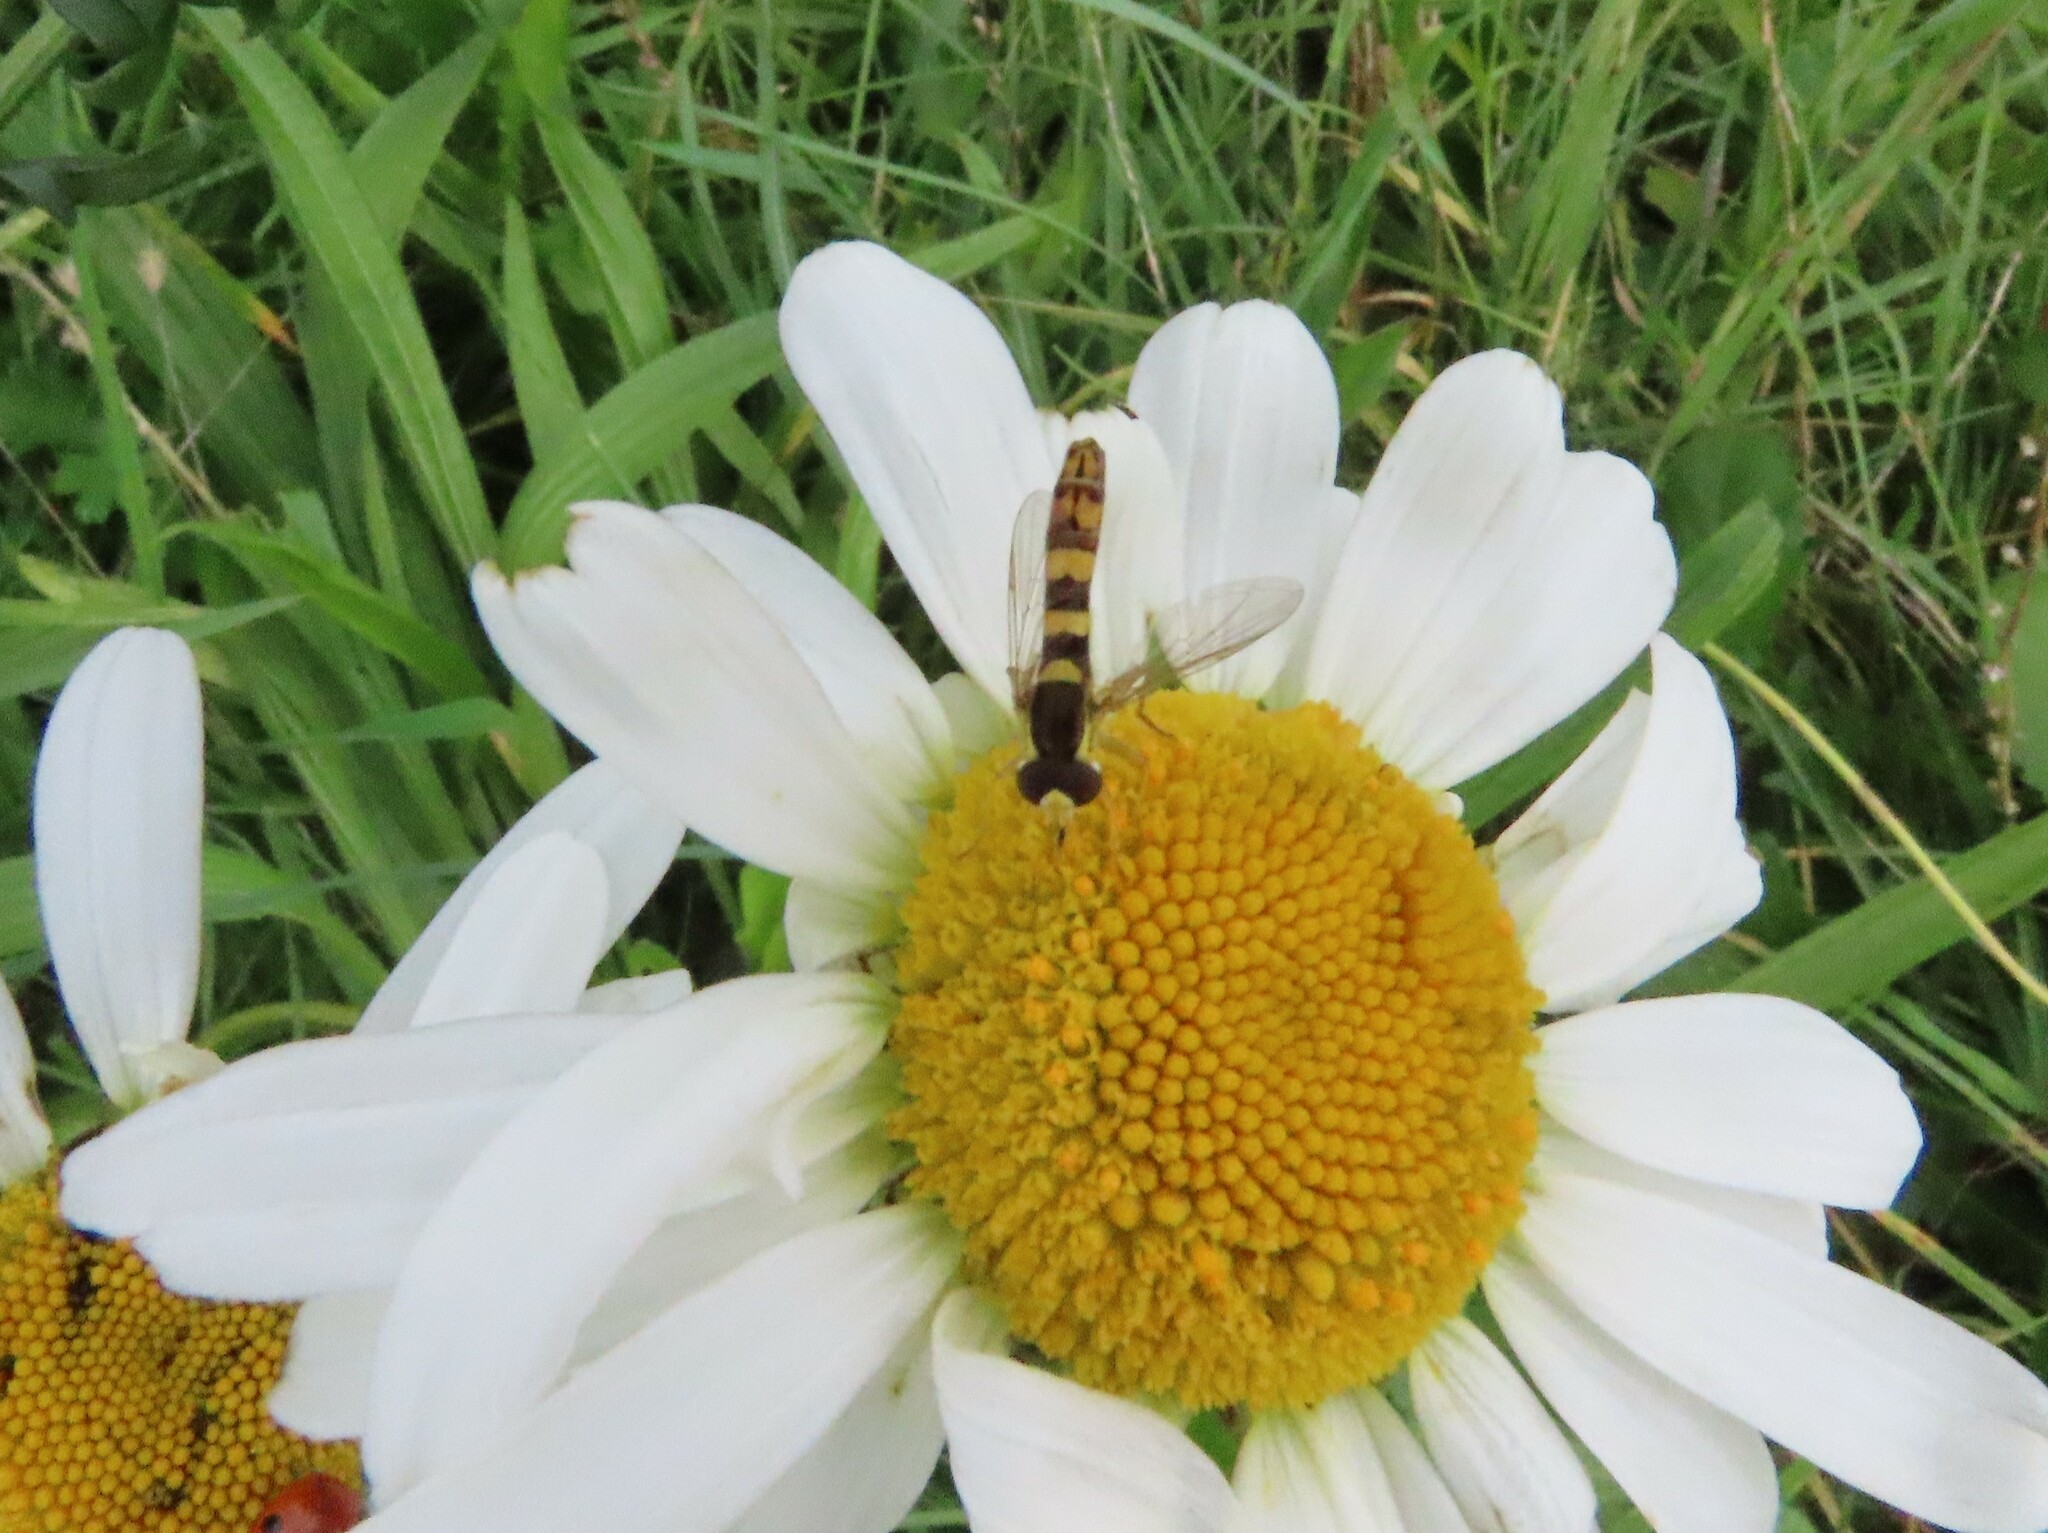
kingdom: Animalia
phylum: Arthropoda
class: Insecta
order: Diptera
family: Syrphidae
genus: Sphaerophoria
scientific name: Sphaerophoria scripta
